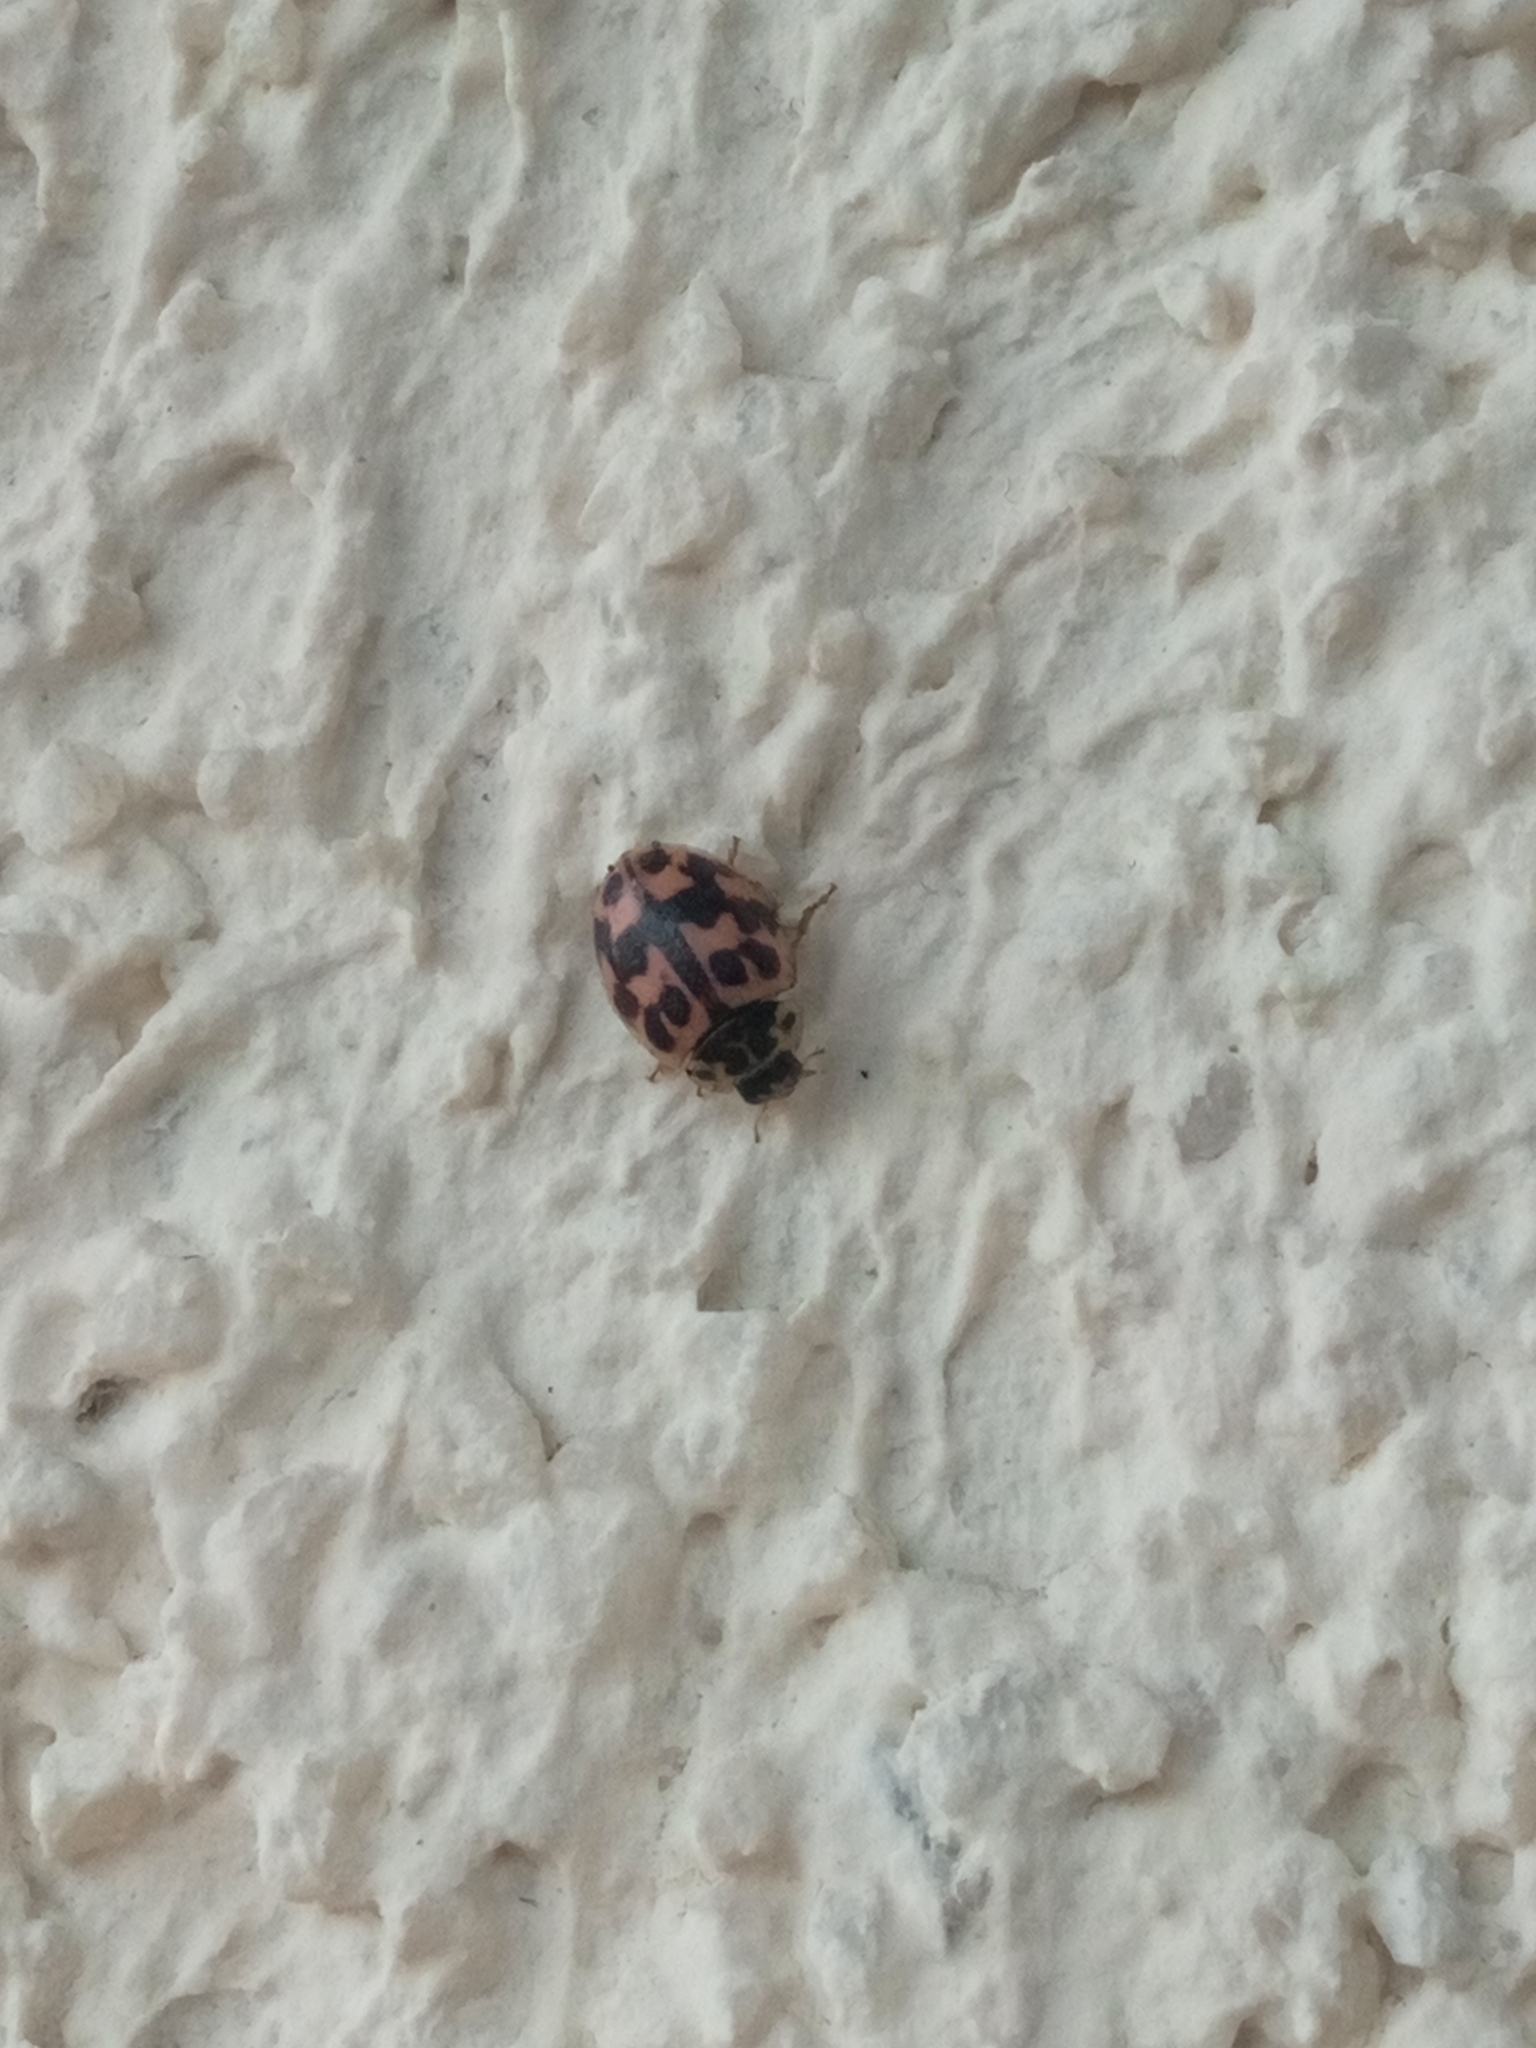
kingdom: Animalia
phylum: Arthropoda
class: Insecta
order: Coleoptera
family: Coccinellidae
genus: Oenopia
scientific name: Oenopia conglobata
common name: Ladybird beetle
